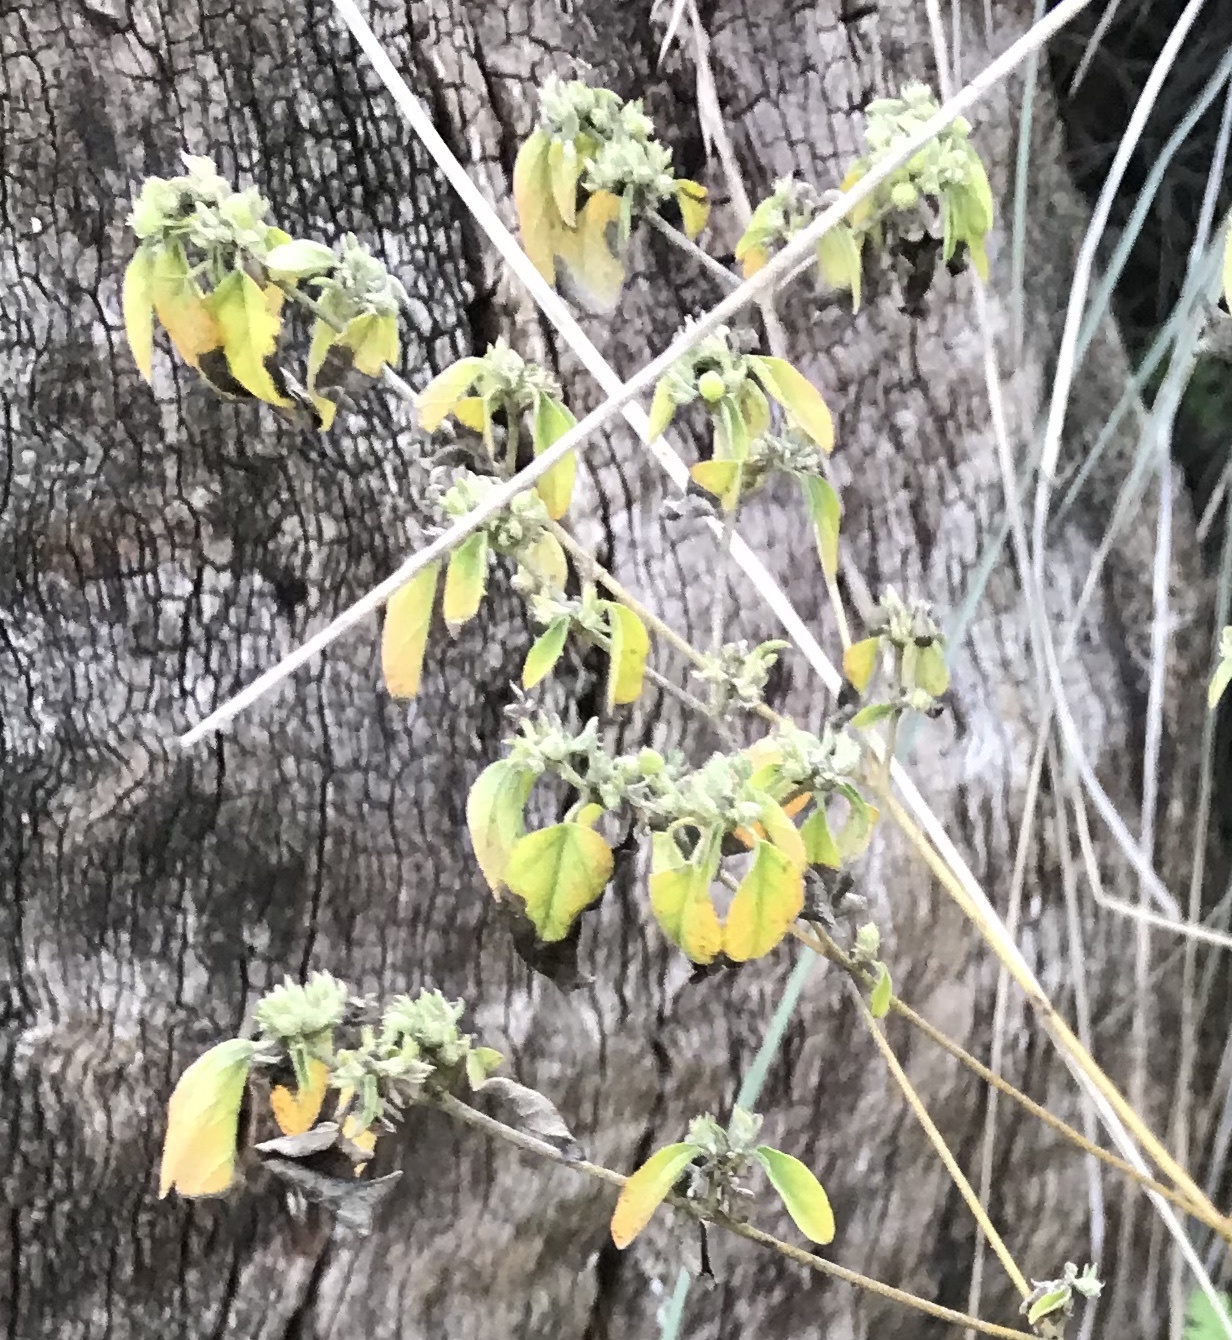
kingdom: Plantae
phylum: Tracheophyta
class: Magnoliopsida
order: Malpighiales
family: Euphorbiaceae
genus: Croton
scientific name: Croton monanthogynus
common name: One-seed croton
